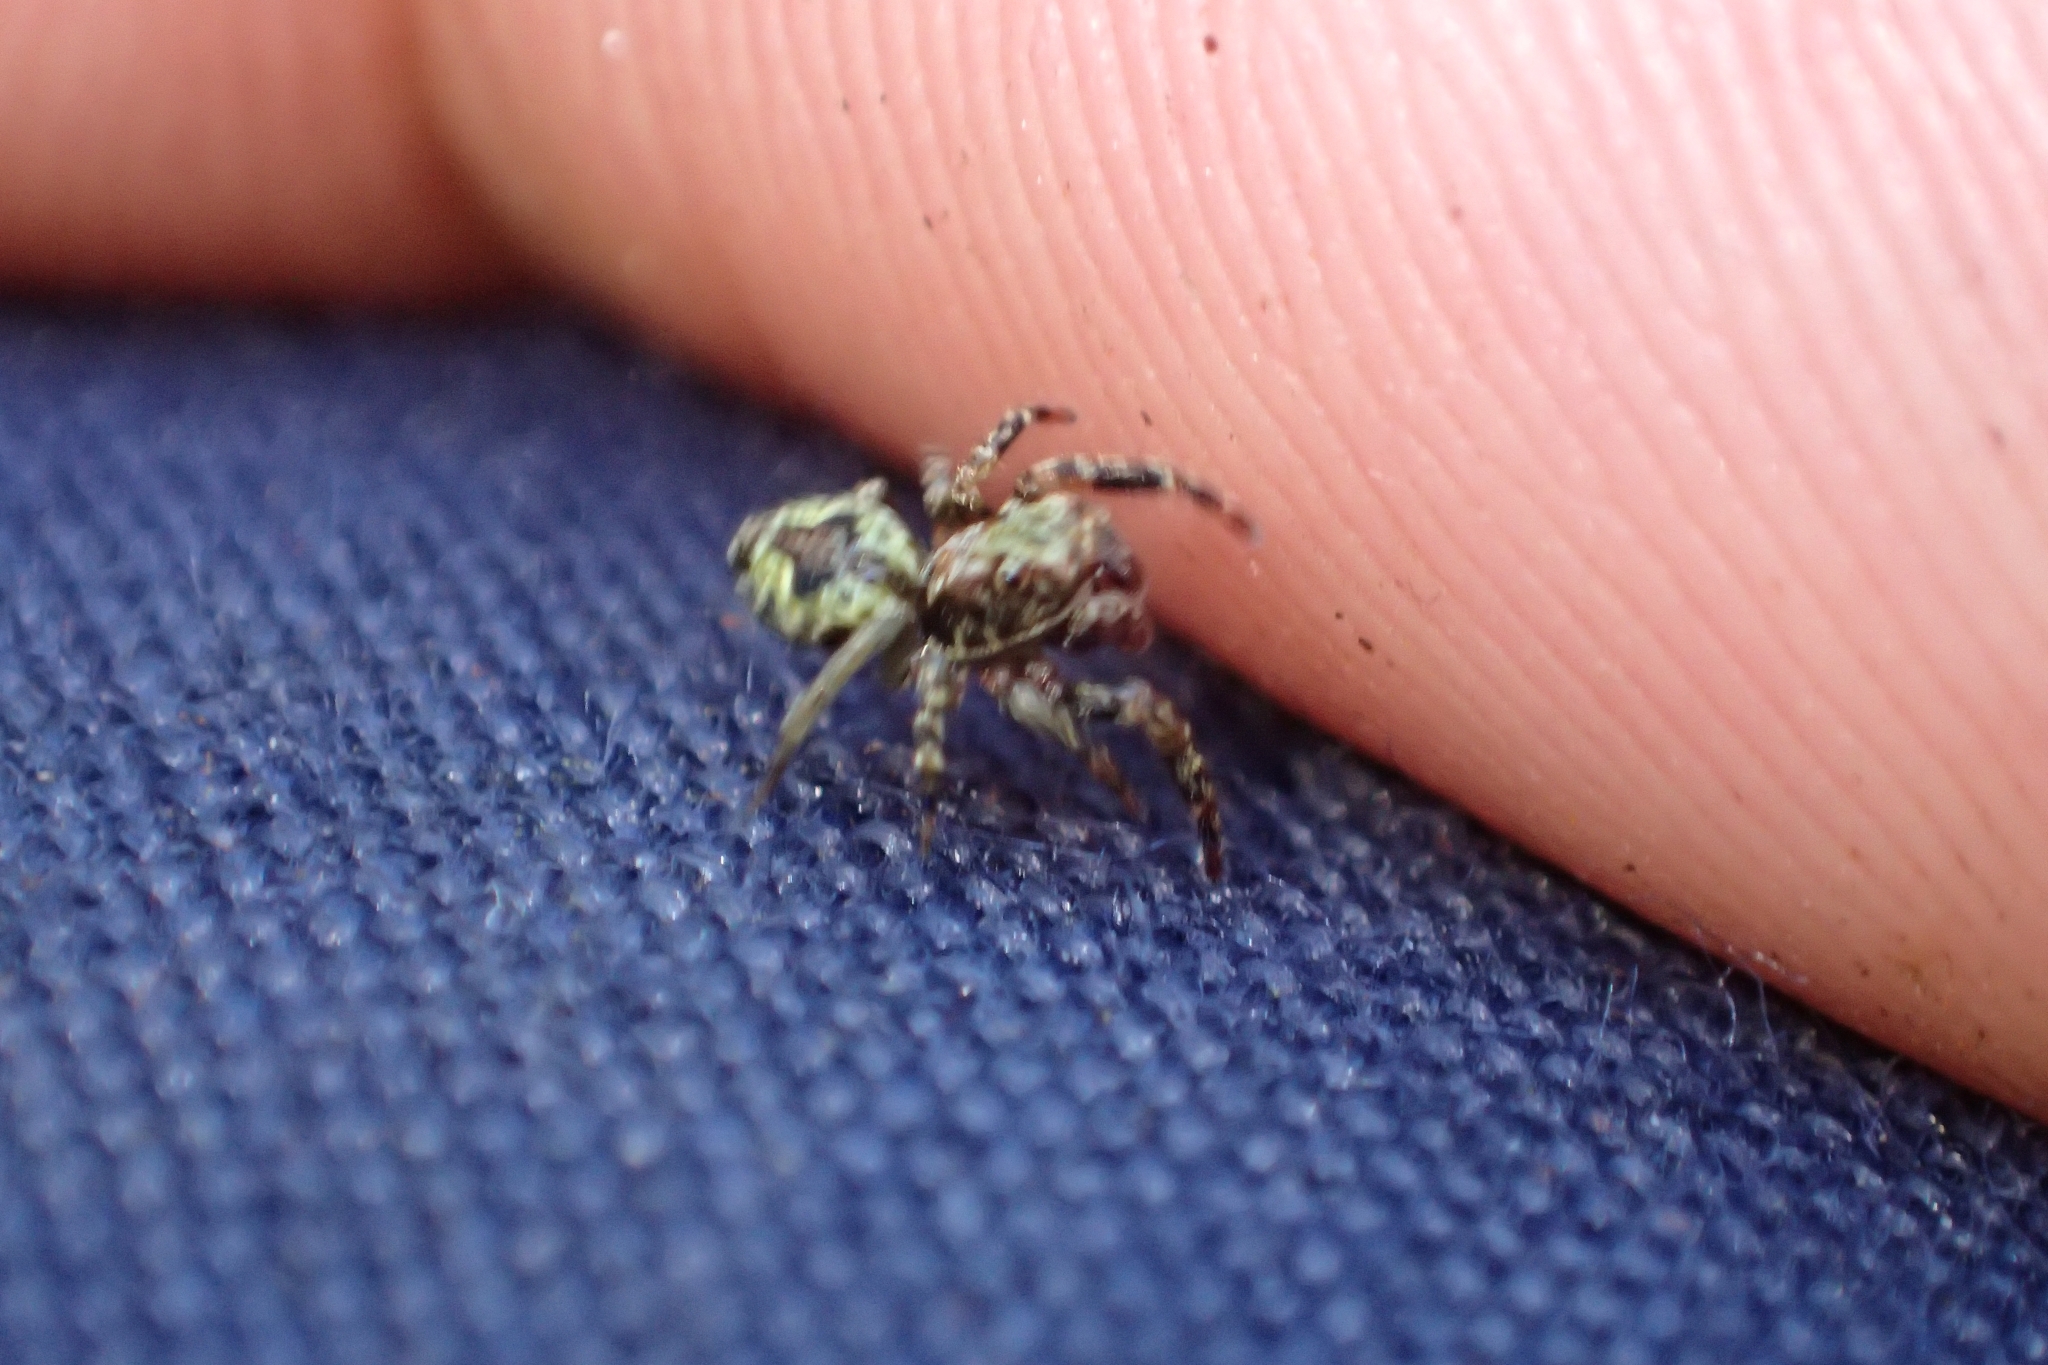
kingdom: Animalia
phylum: Arthropoda
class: Arachnida
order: Araneae
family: Salticidae
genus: Hinewaia
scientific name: Hinewaia embolica
